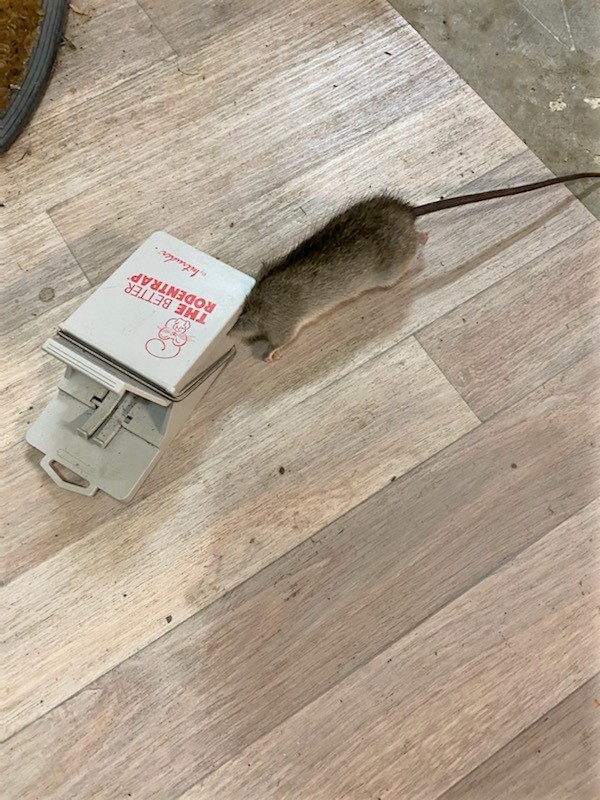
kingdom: Animalia
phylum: Chordata
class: Mammalia
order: Rodentia
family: Muridae
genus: Rattus
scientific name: Rattus rattus
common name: Black rat
